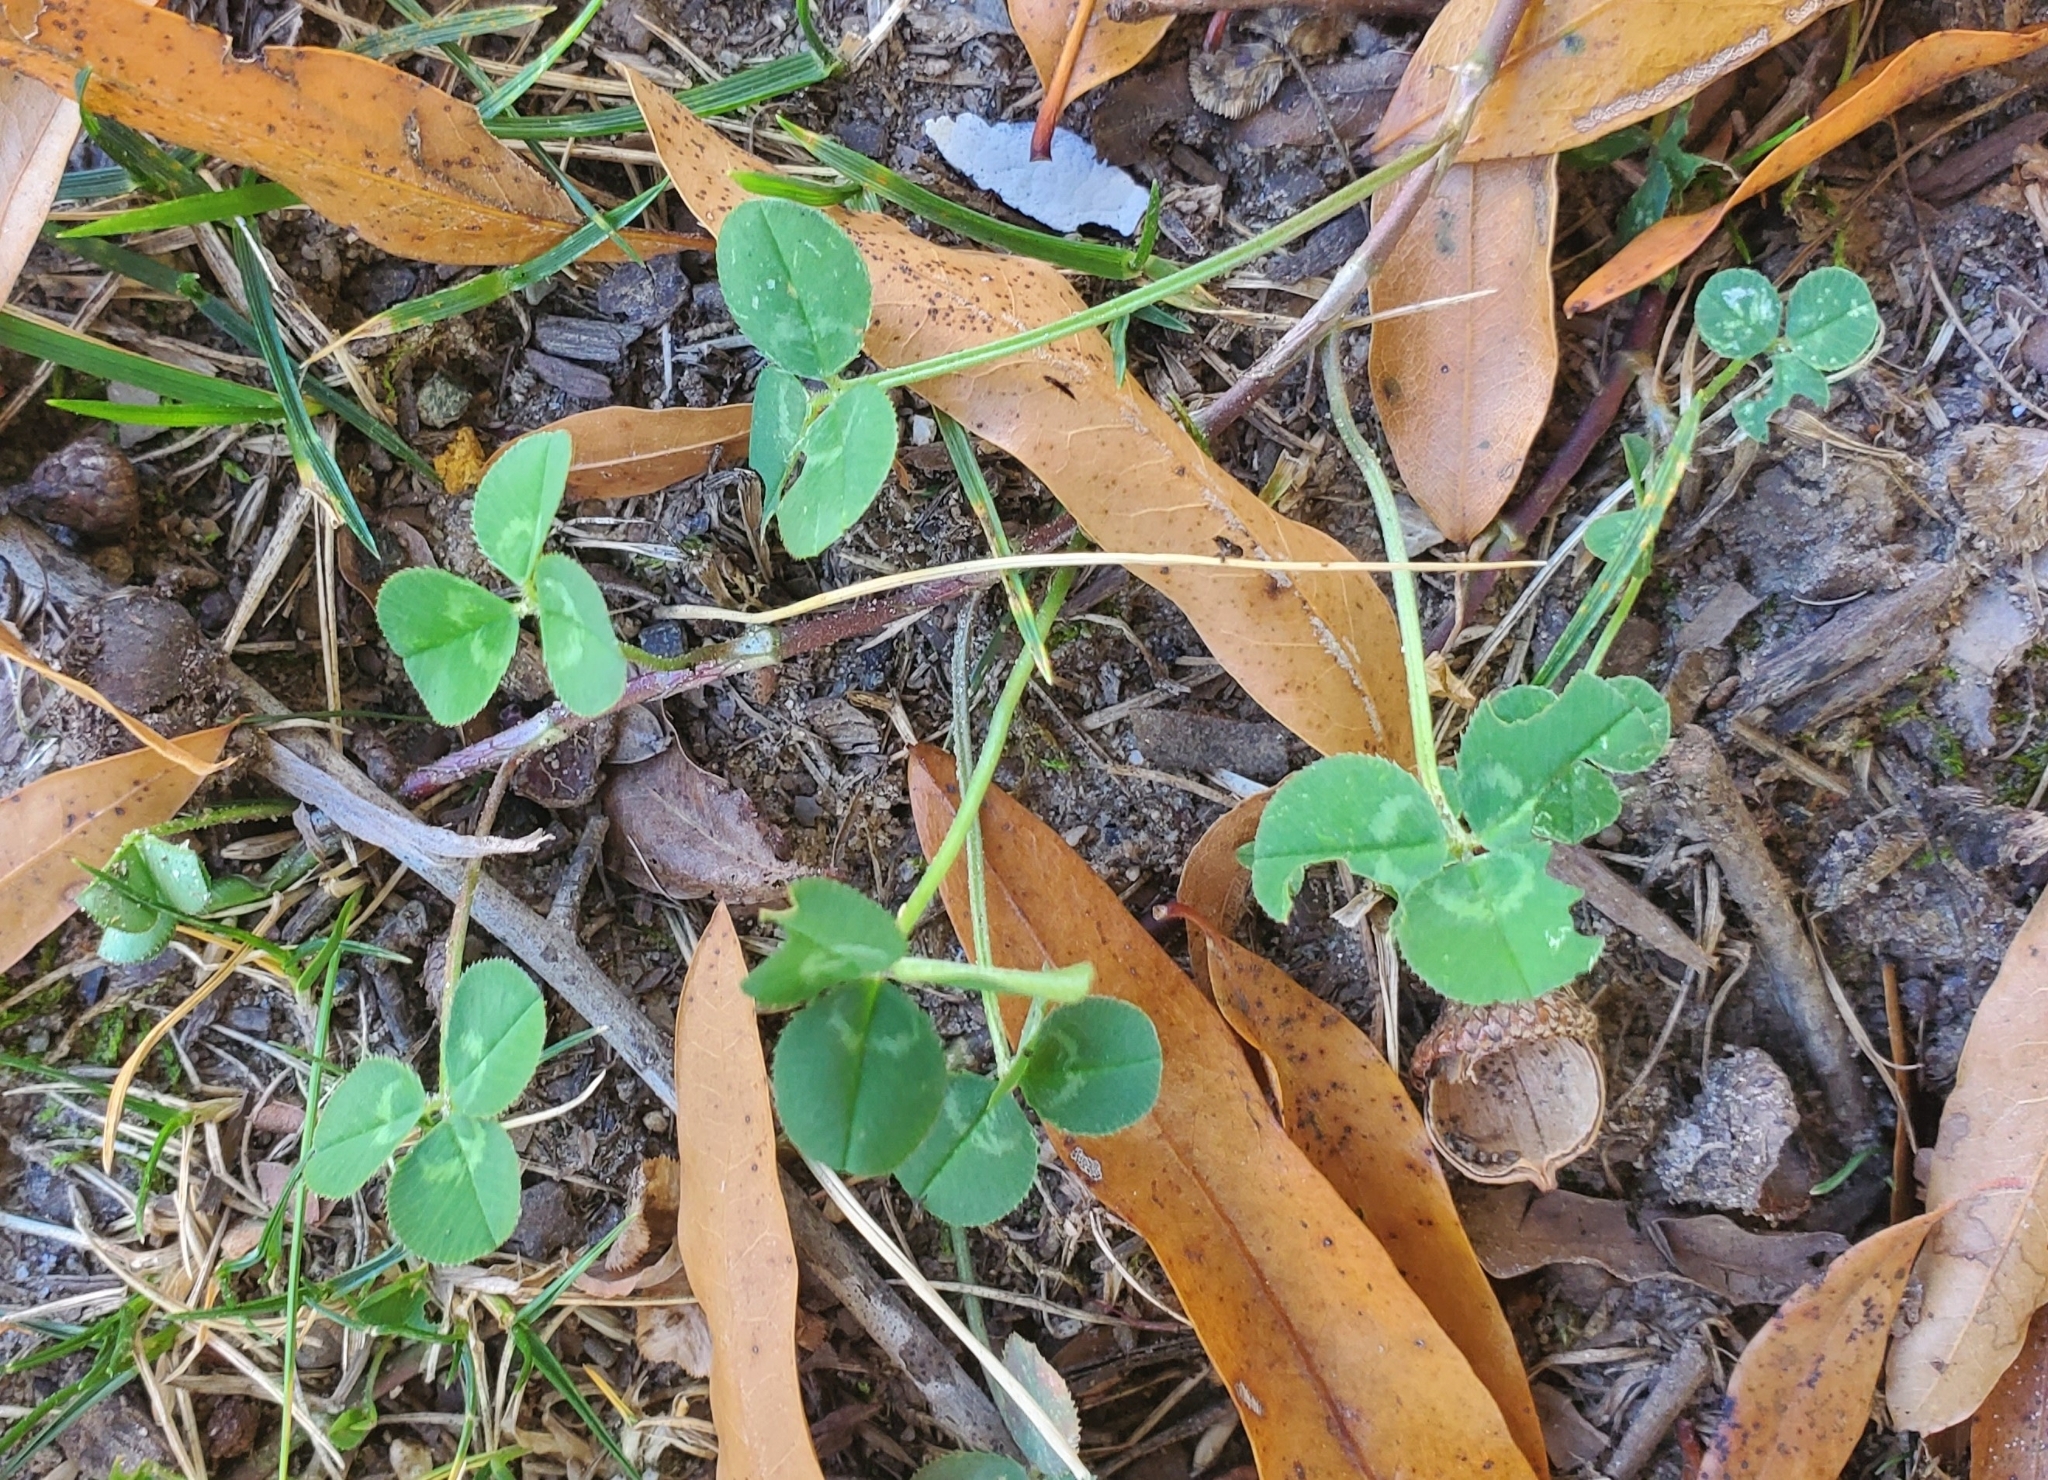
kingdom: Plantae
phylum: Tracheophyta
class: Magnoliopsida
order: Fabales
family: Fabaceae
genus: Trifolium
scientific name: Trifolium repens
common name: White clover
